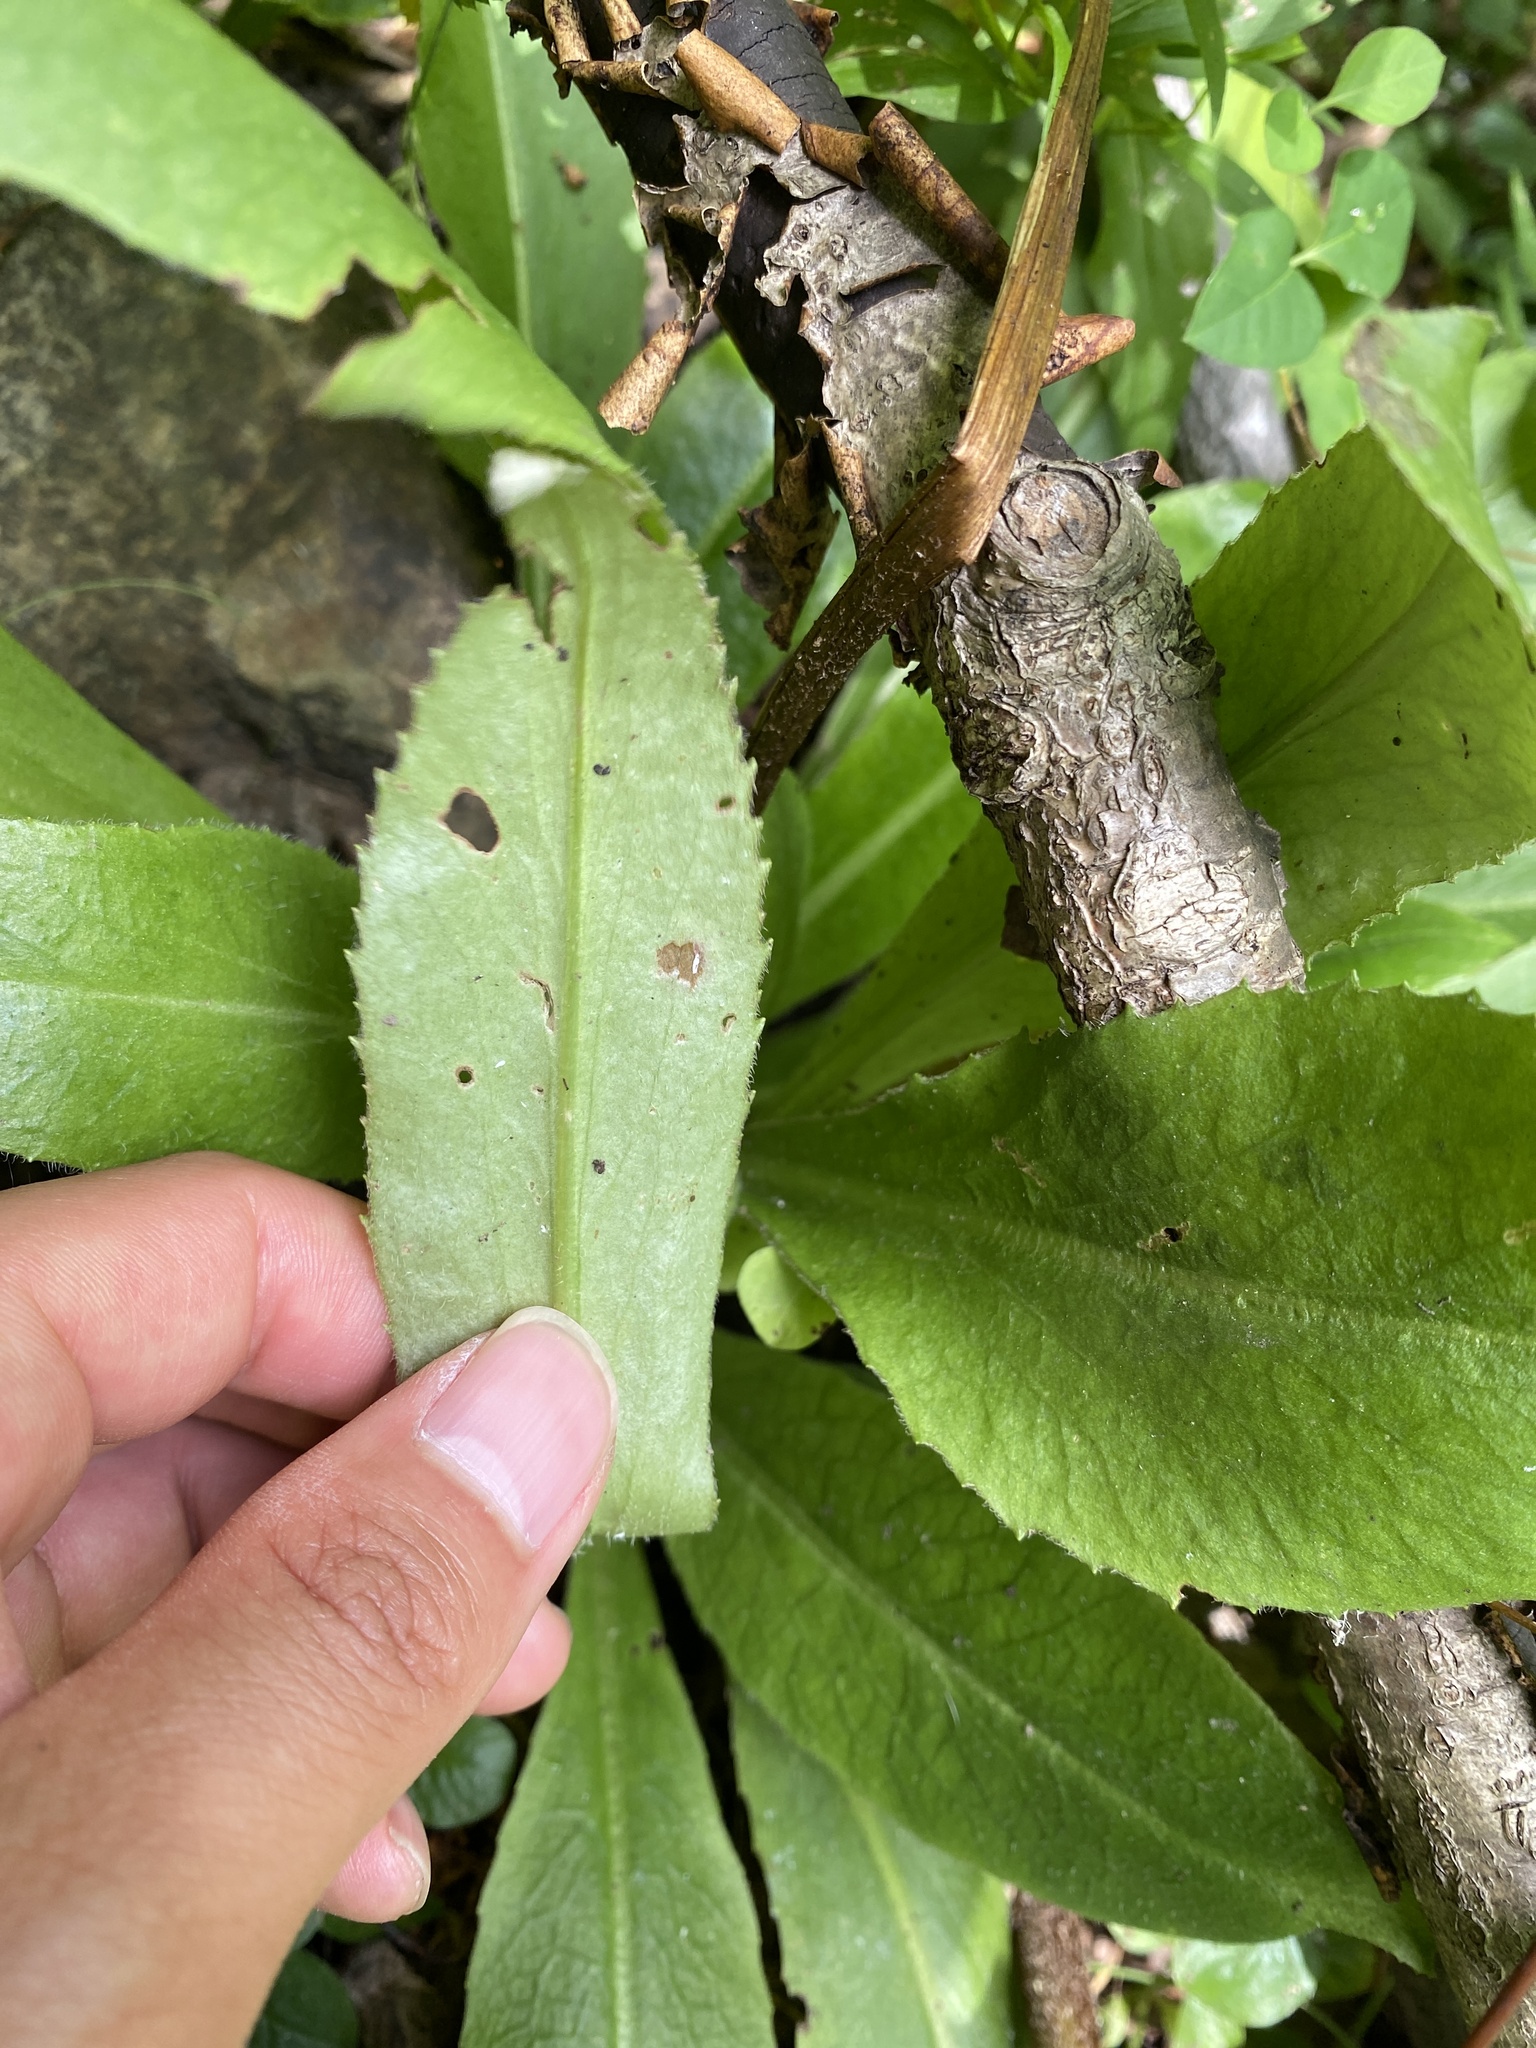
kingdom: Plantae
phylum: Tracheophyta
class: Magnoliopsida
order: Saxifragales
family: Saxifragaceae
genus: Micranthes
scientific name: Micranthes pensylvanica
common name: Marsh saxifrage
